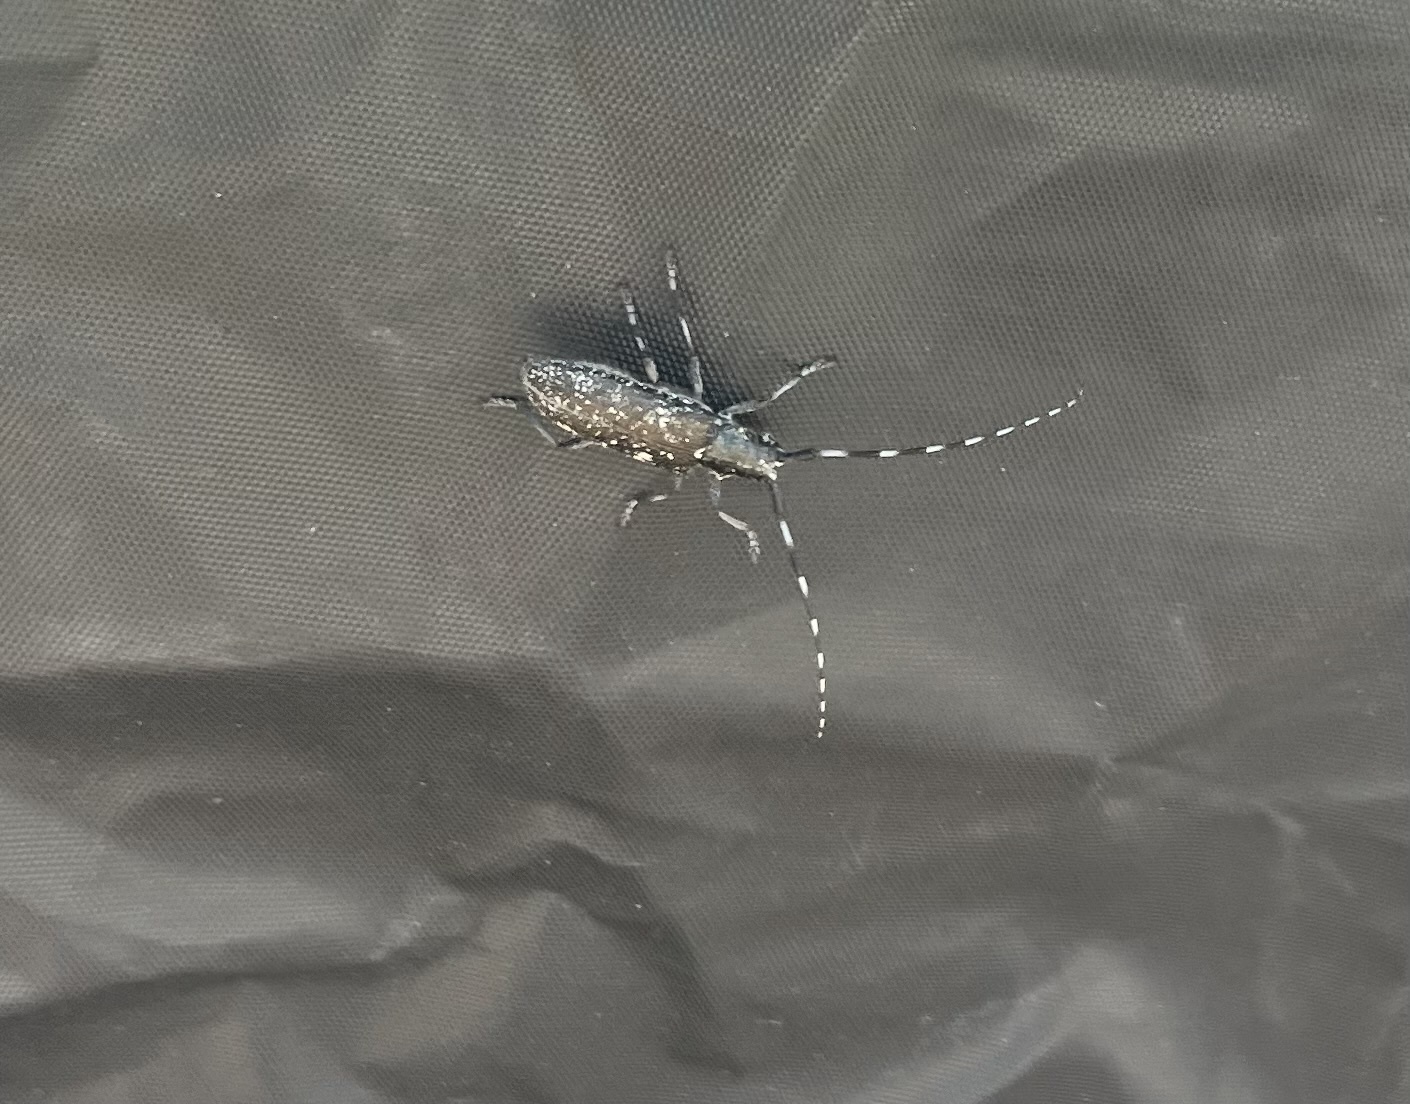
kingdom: Animalia
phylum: Arthropoda
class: Insecta
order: Coleoptera
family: Cerambycidae
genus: Monochamus
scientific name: Monochamus scutellatus
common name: White-spotted sawyer beetle
